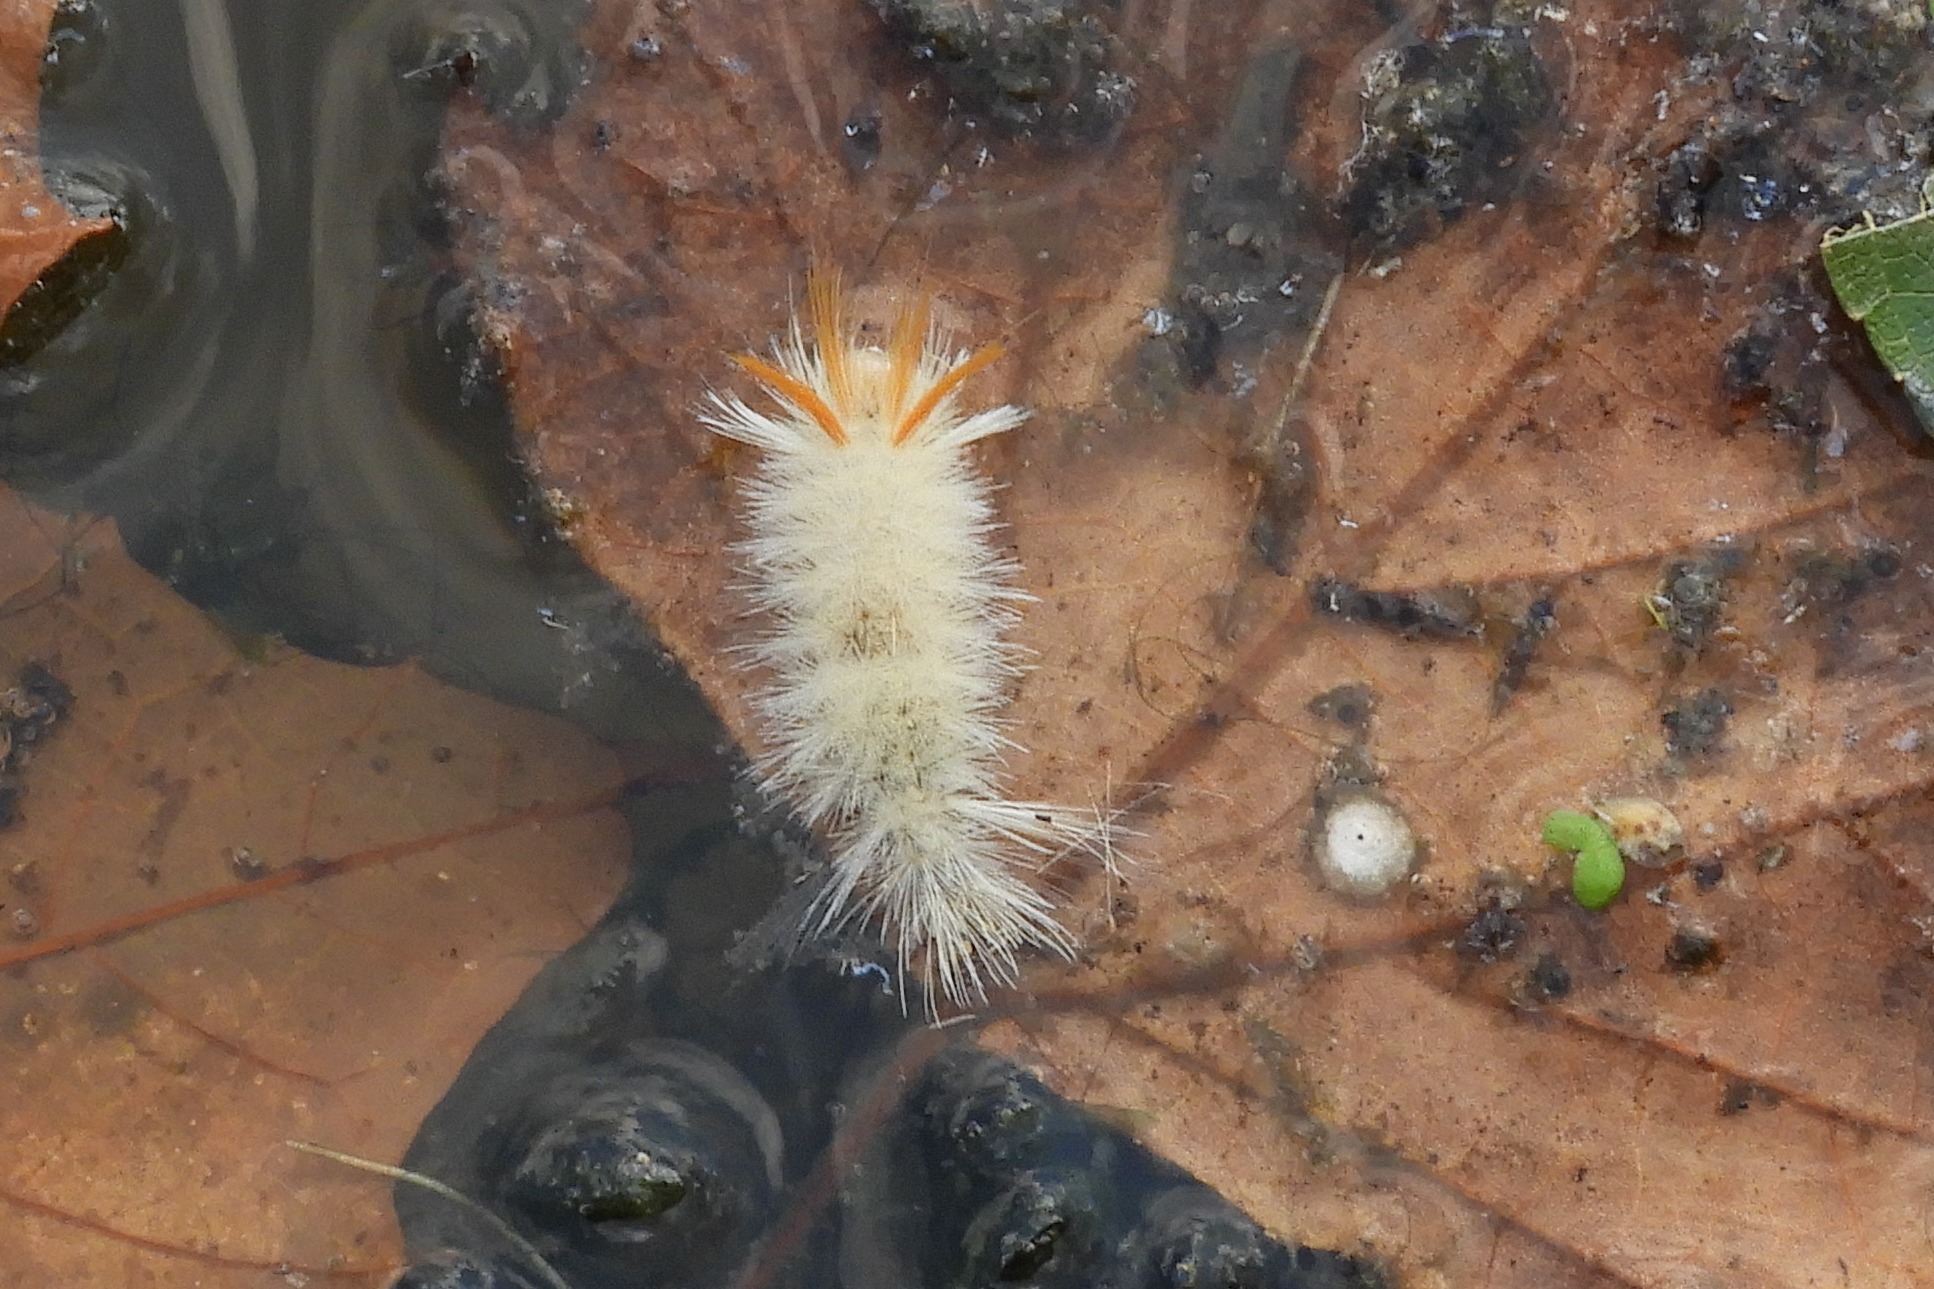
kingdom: Animalia
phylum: Arthropoda
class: Insecta
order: Lepidoptera
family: Erebidae
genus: Halysidota
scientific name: Halysidota harrisii
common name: Sycamore tussock moth
